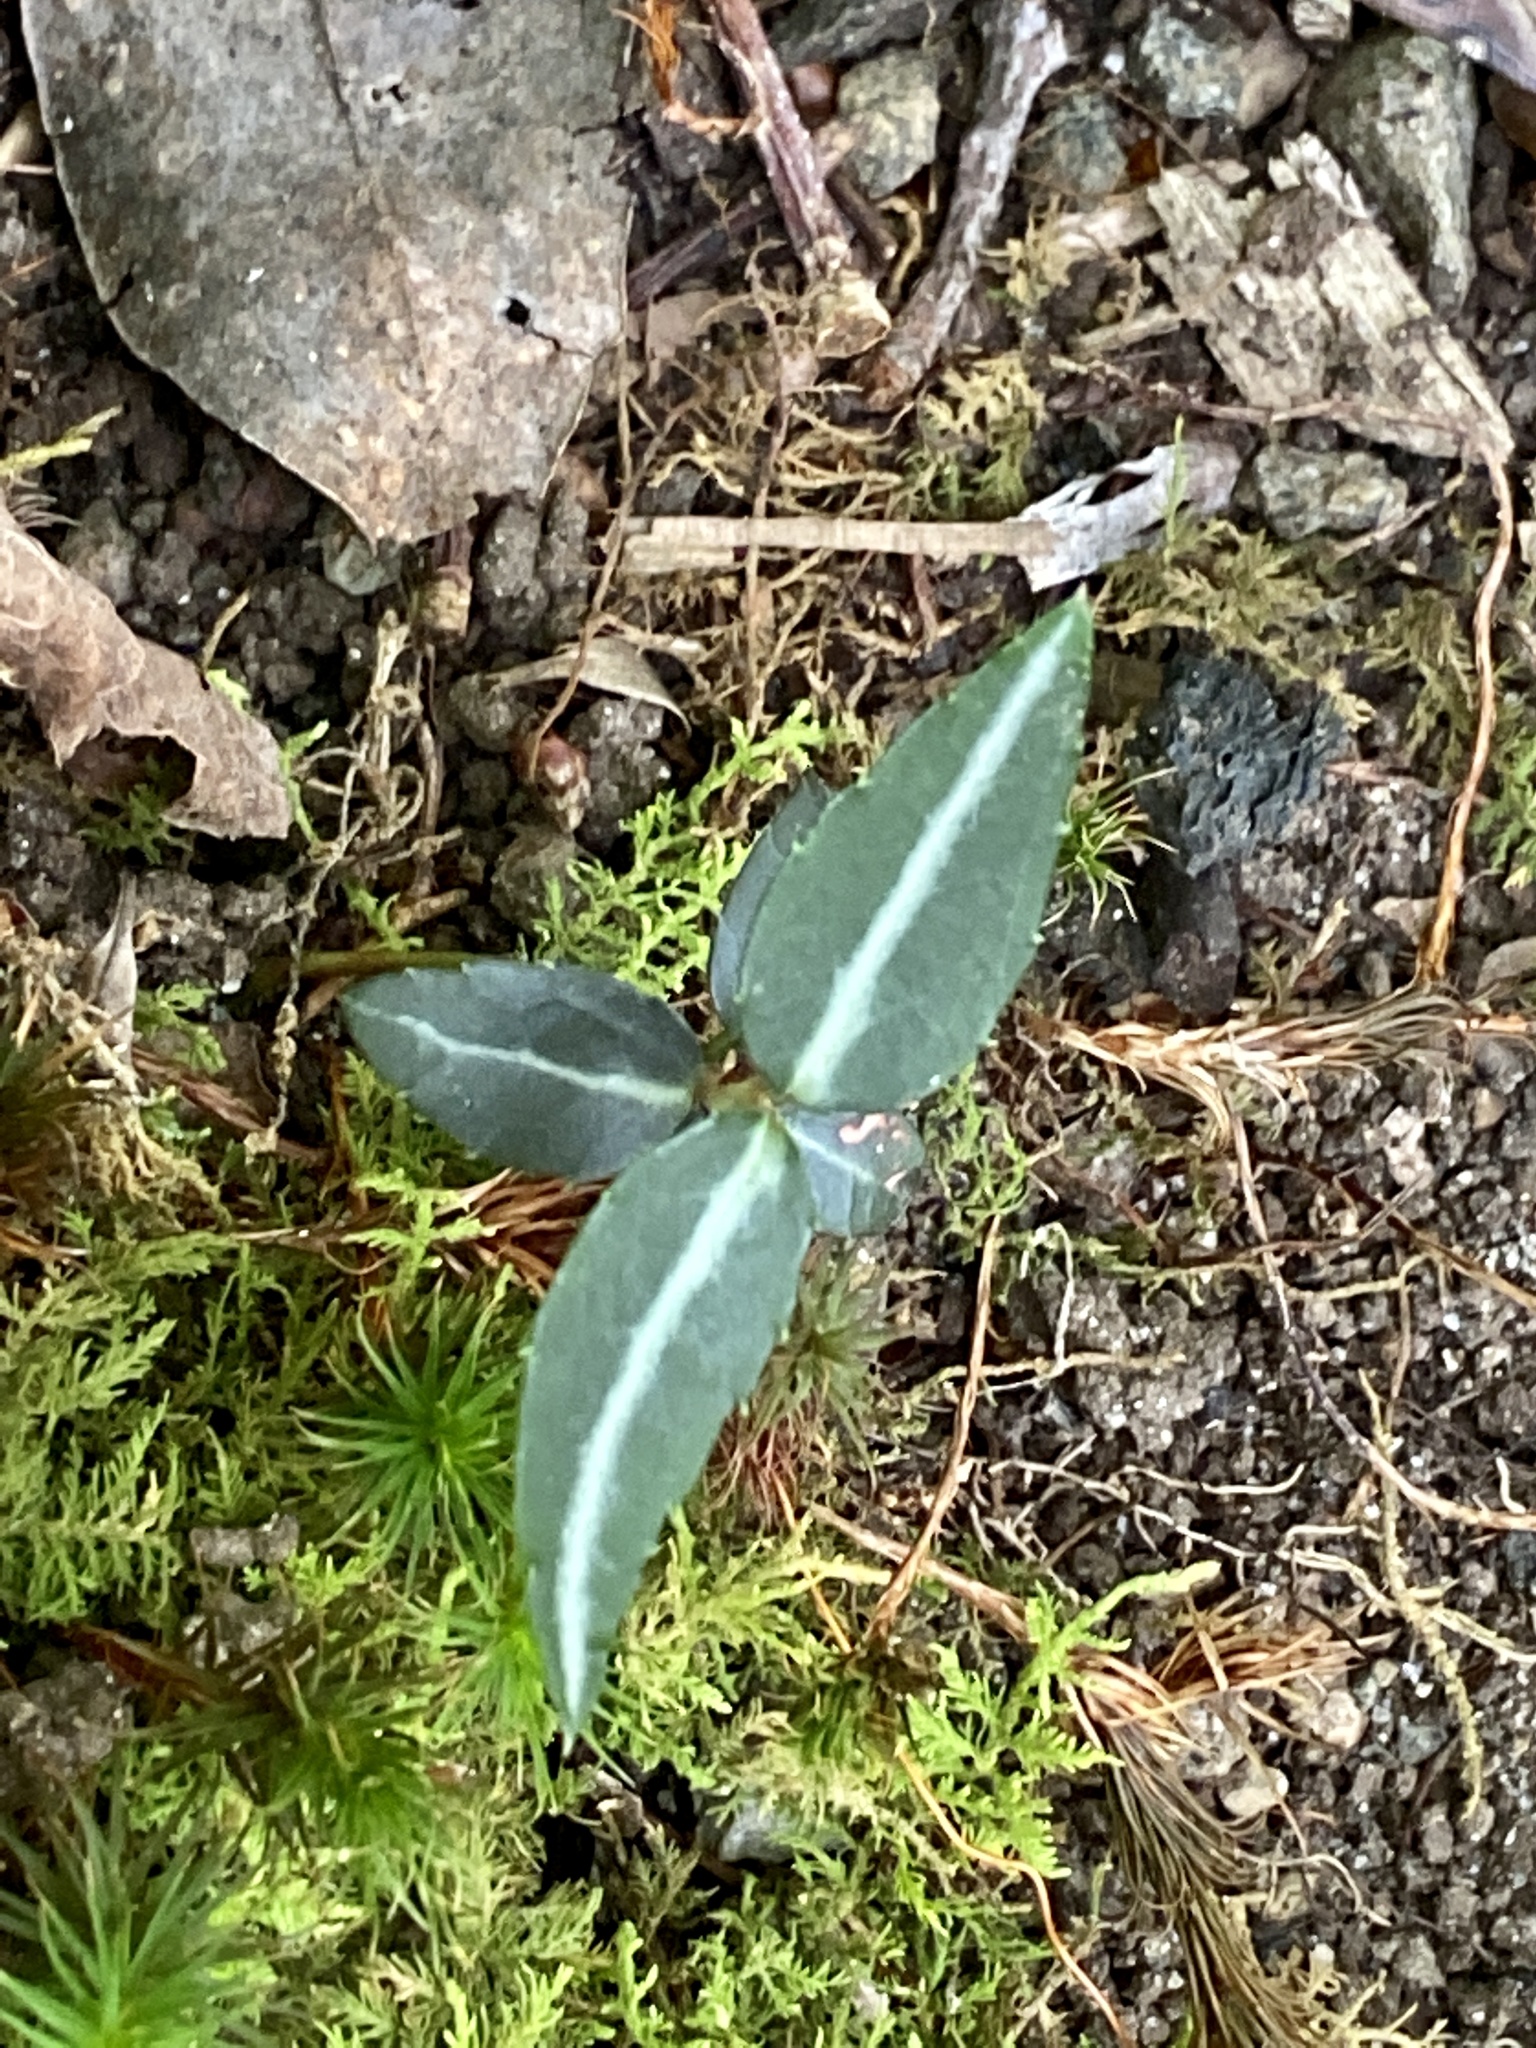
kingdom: Plantae
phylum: Tracheophyta
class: Magnoliopsida
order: Ericales
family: Ericaceae
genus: Chimaphila
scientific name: Chimaphila maculata
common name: Spotted pipsissewa
